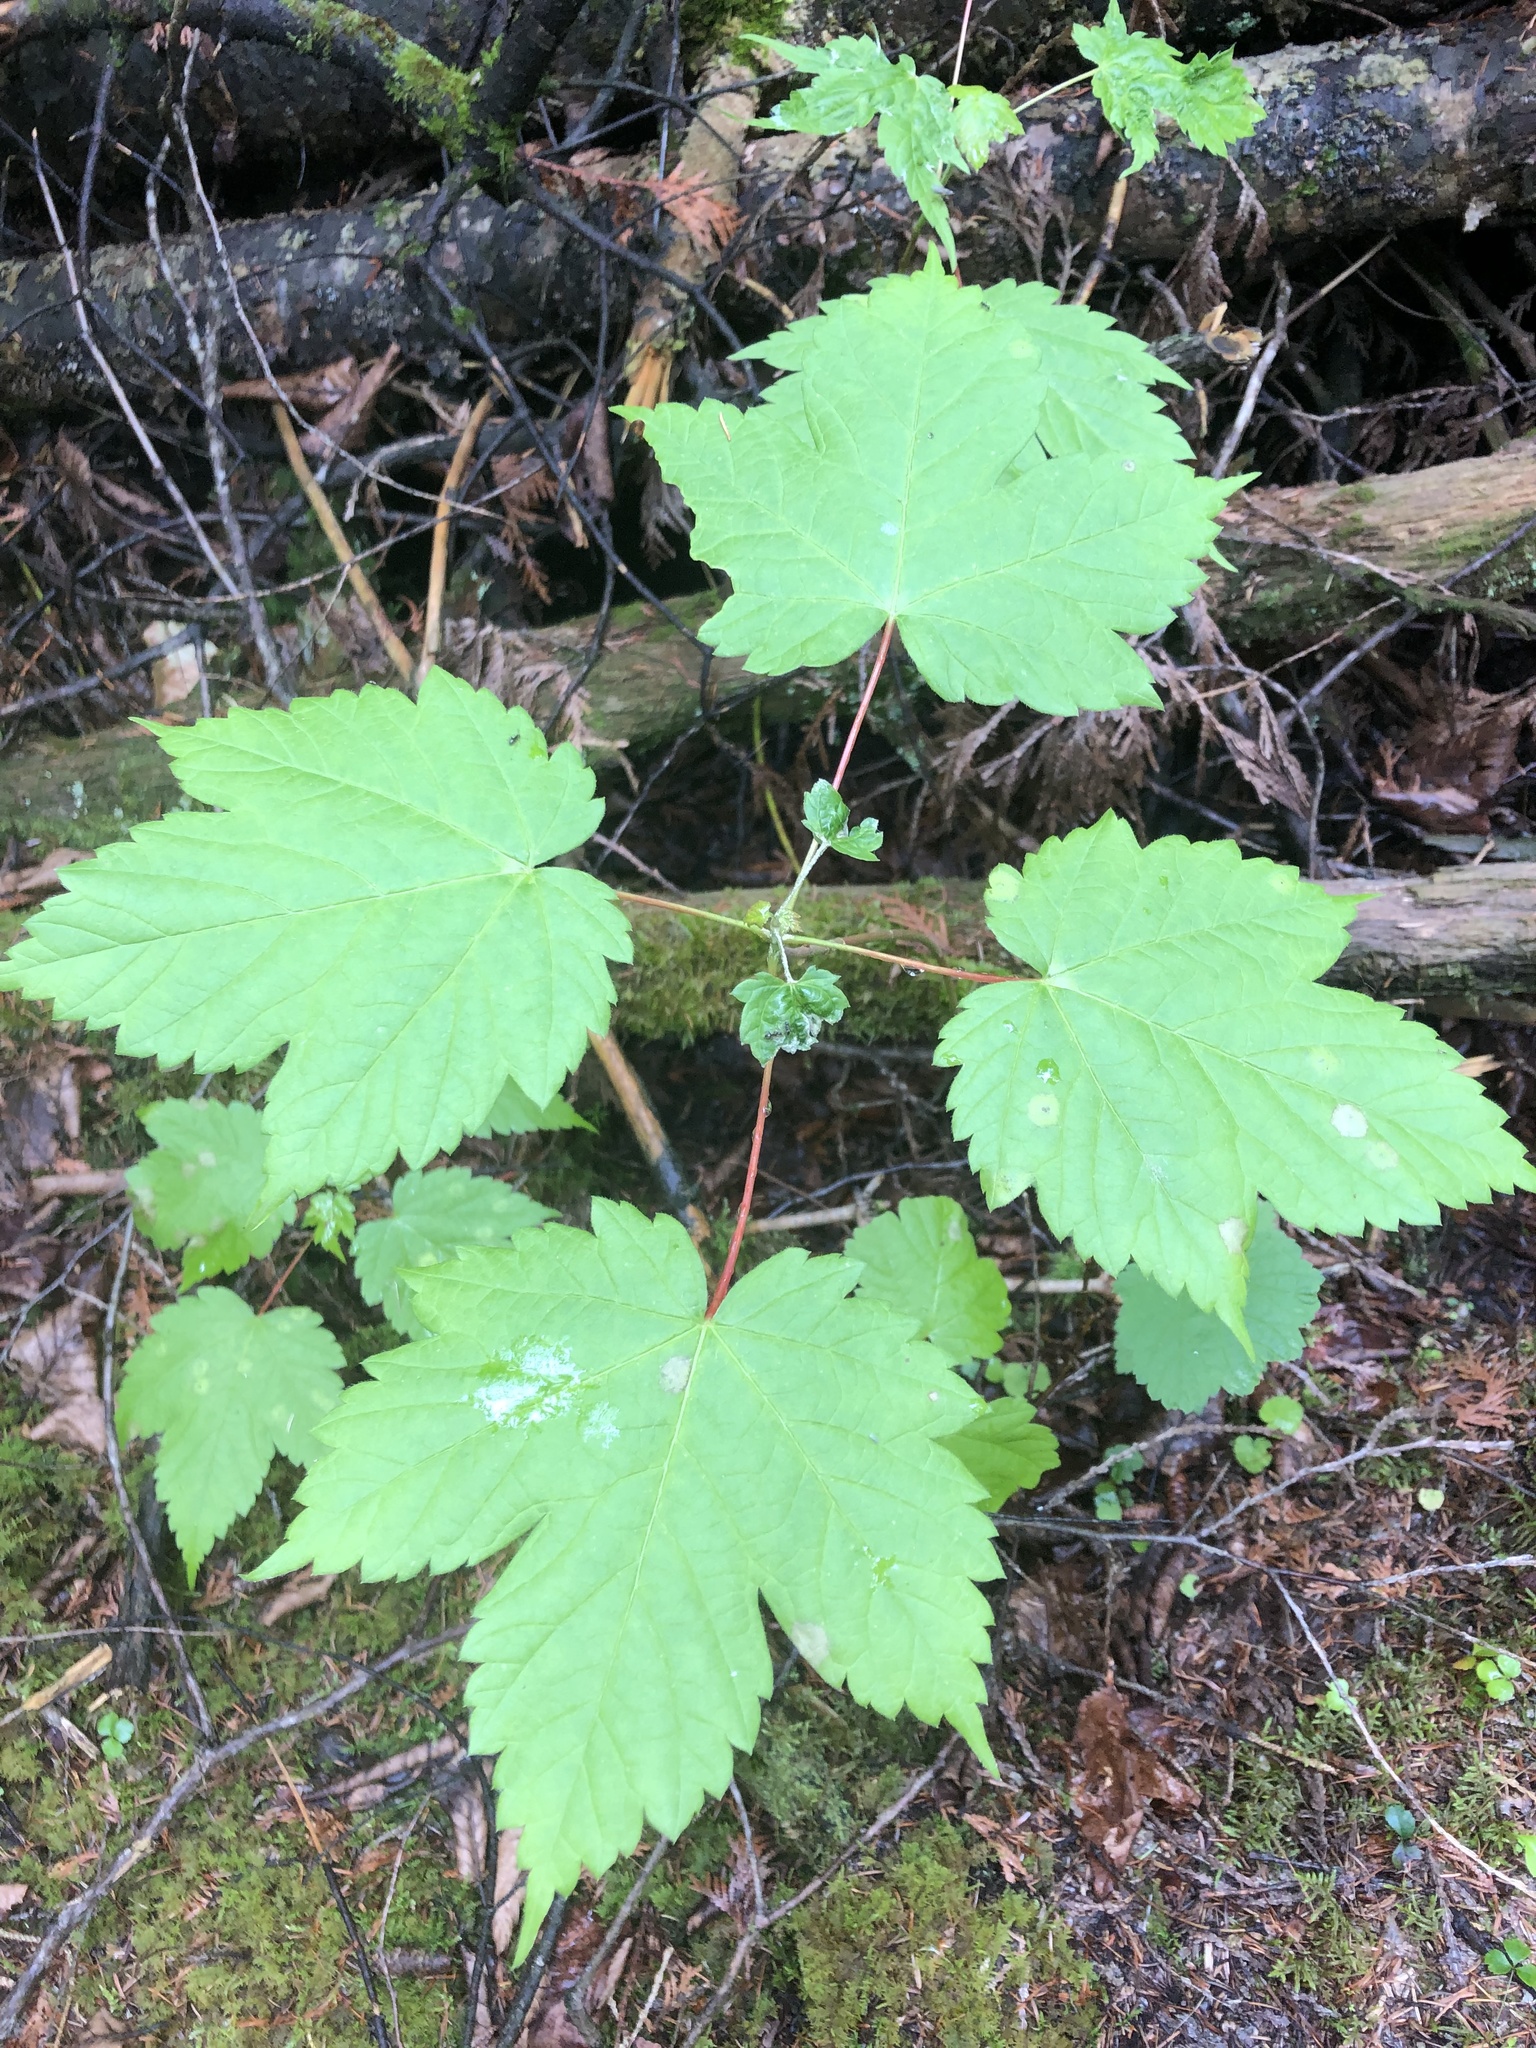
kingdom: Plantae
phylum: Tracheophyta
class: Magnoliopsida
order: Sapindales
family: Sapindaceae
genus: Acer
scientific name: Acer spicatum
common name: Mountain maple
